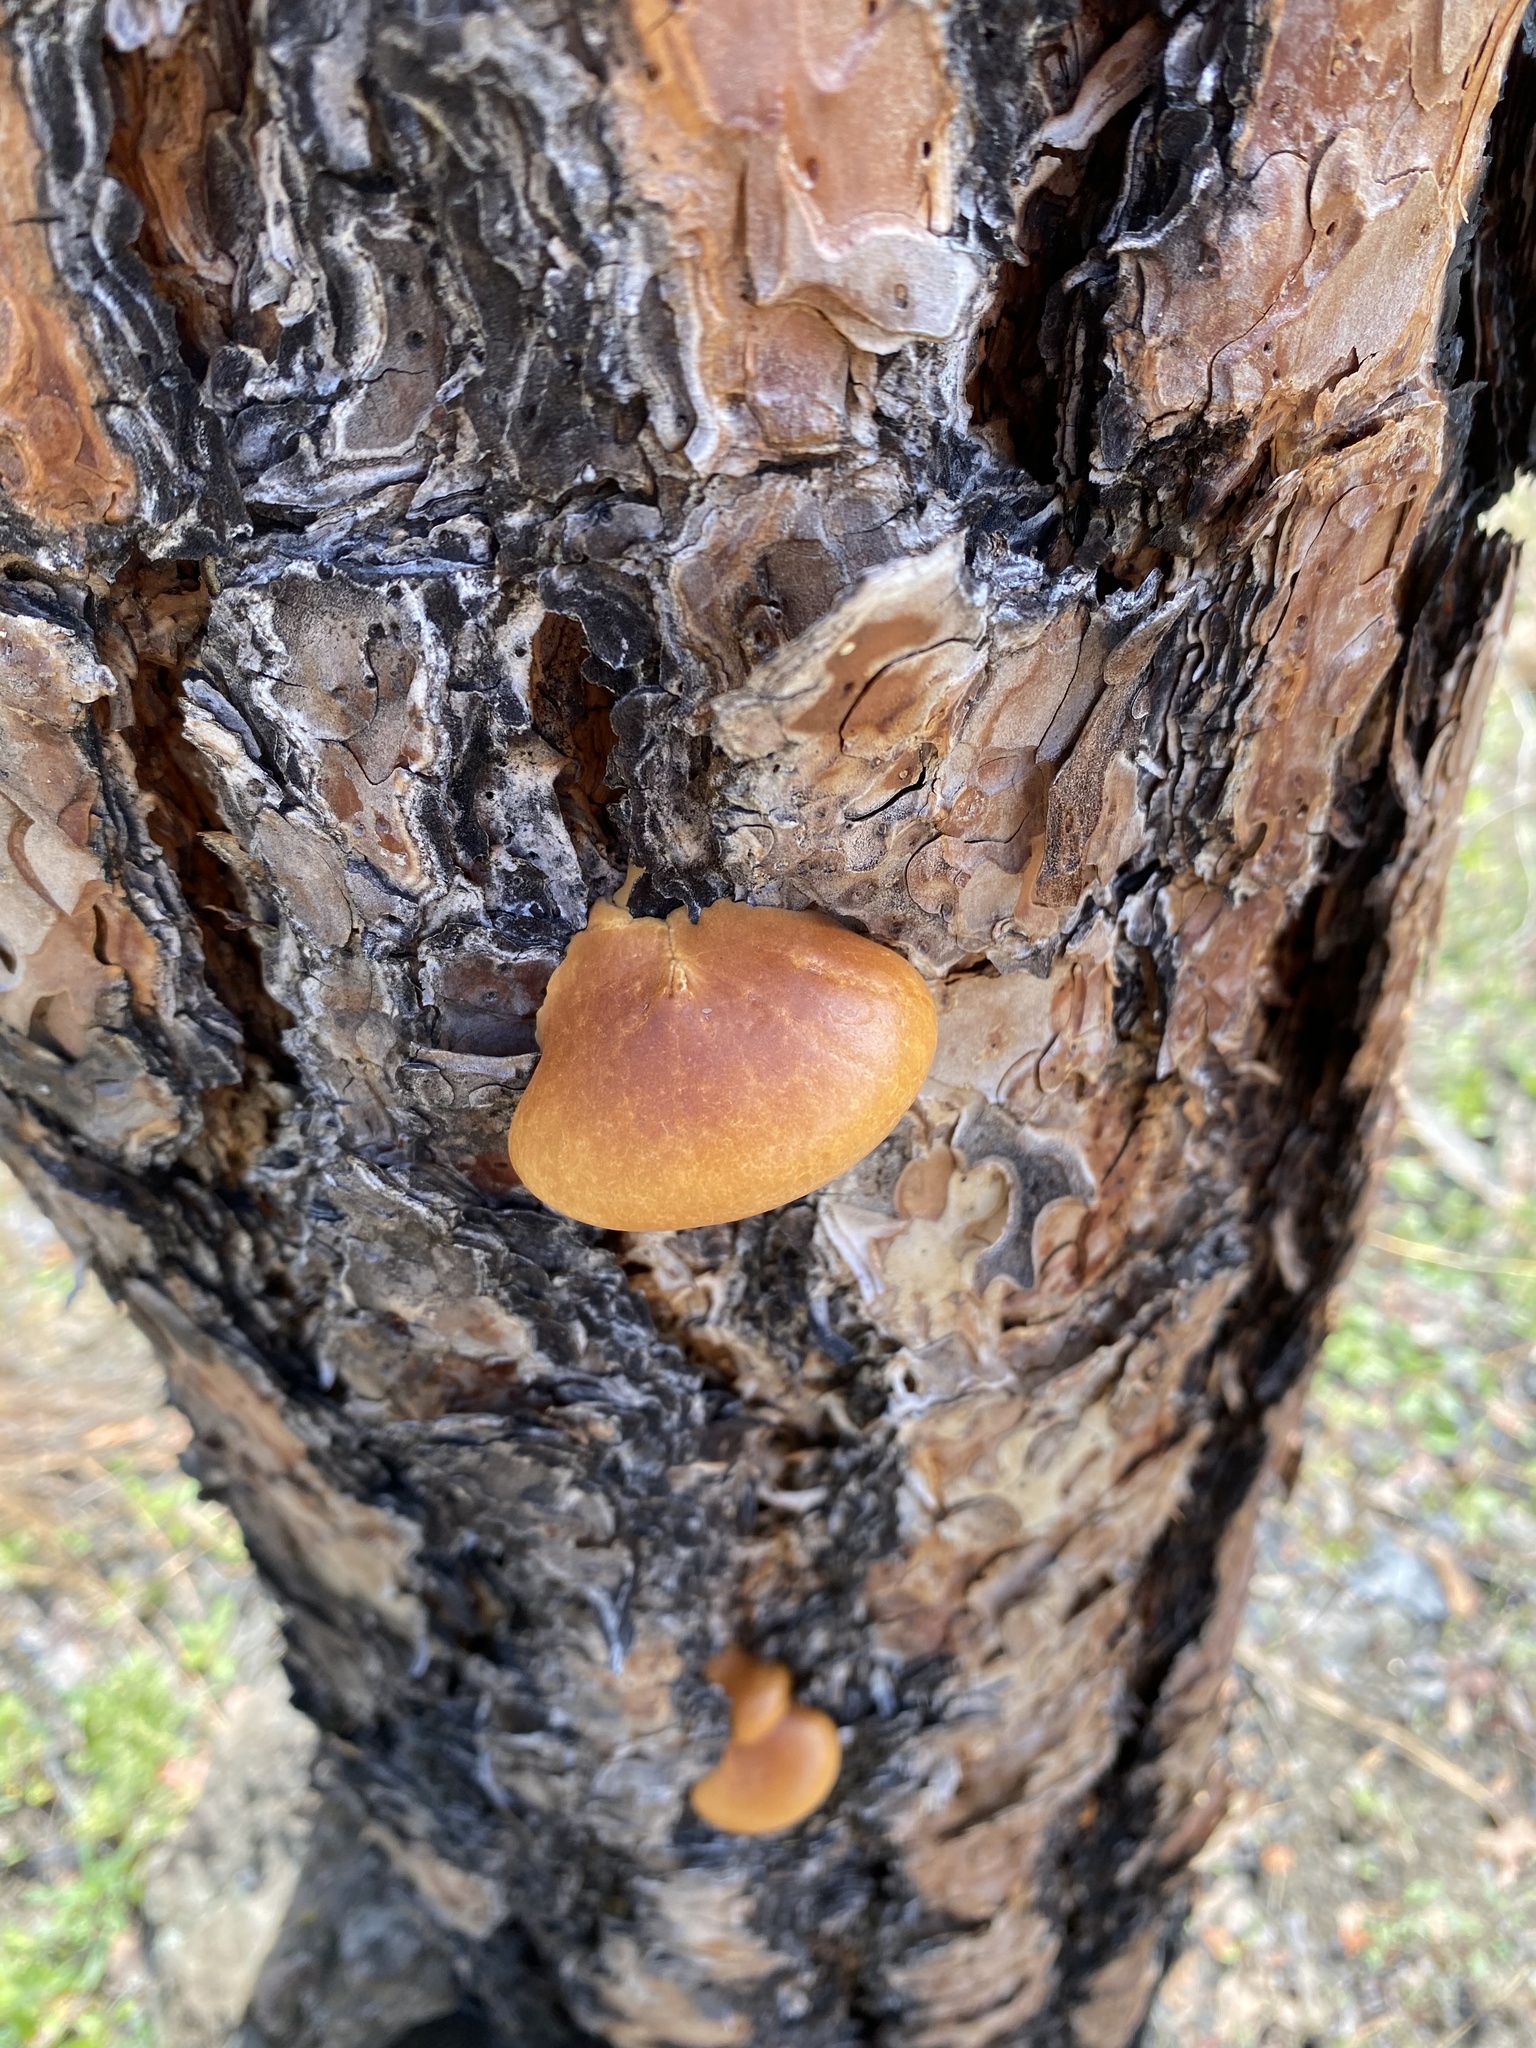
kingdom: Fungi
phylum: Basidiomycota
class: Agaricomycetes
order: Polyporales
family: Polyporaceae
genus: Cryptoporus
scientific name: Cryptoporus volvatus
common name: Veiled polypore
